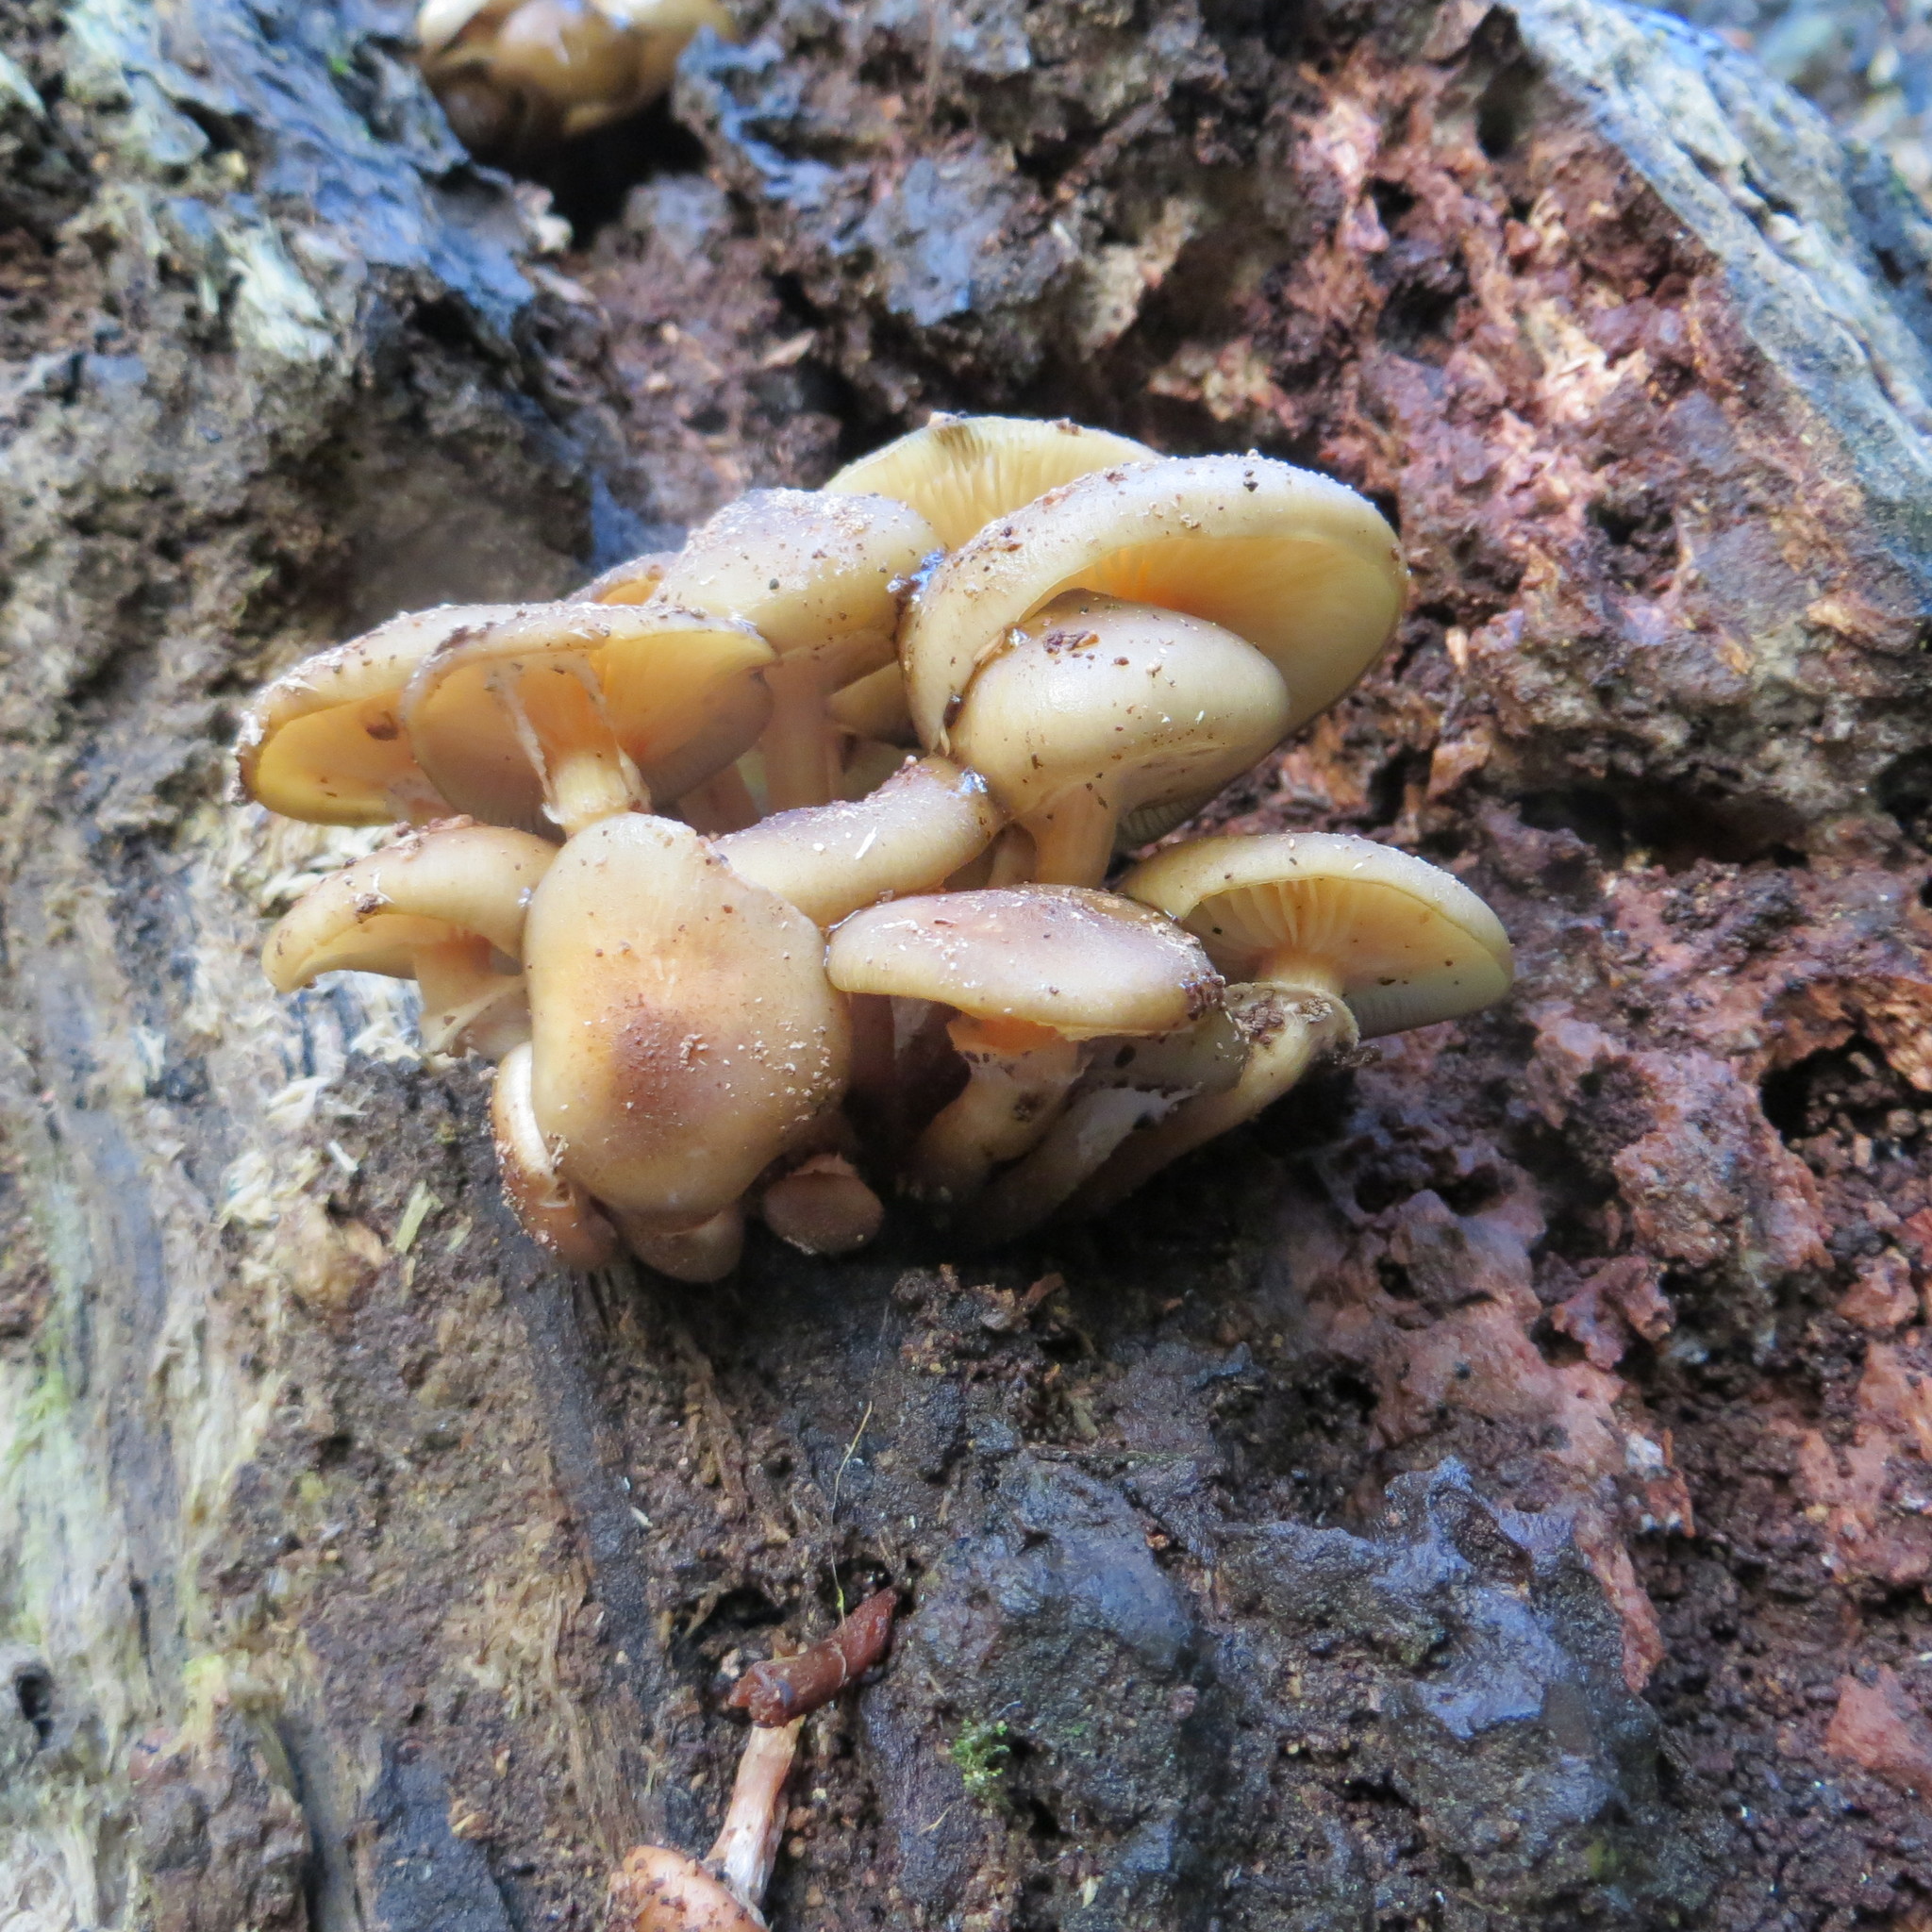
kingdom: Fungi
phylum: Basidiomycota
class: Agaricomycetes
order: Agaricales
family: Physalacriaceae
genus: Armillaria
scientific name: Armillaria novae-zelandiae
